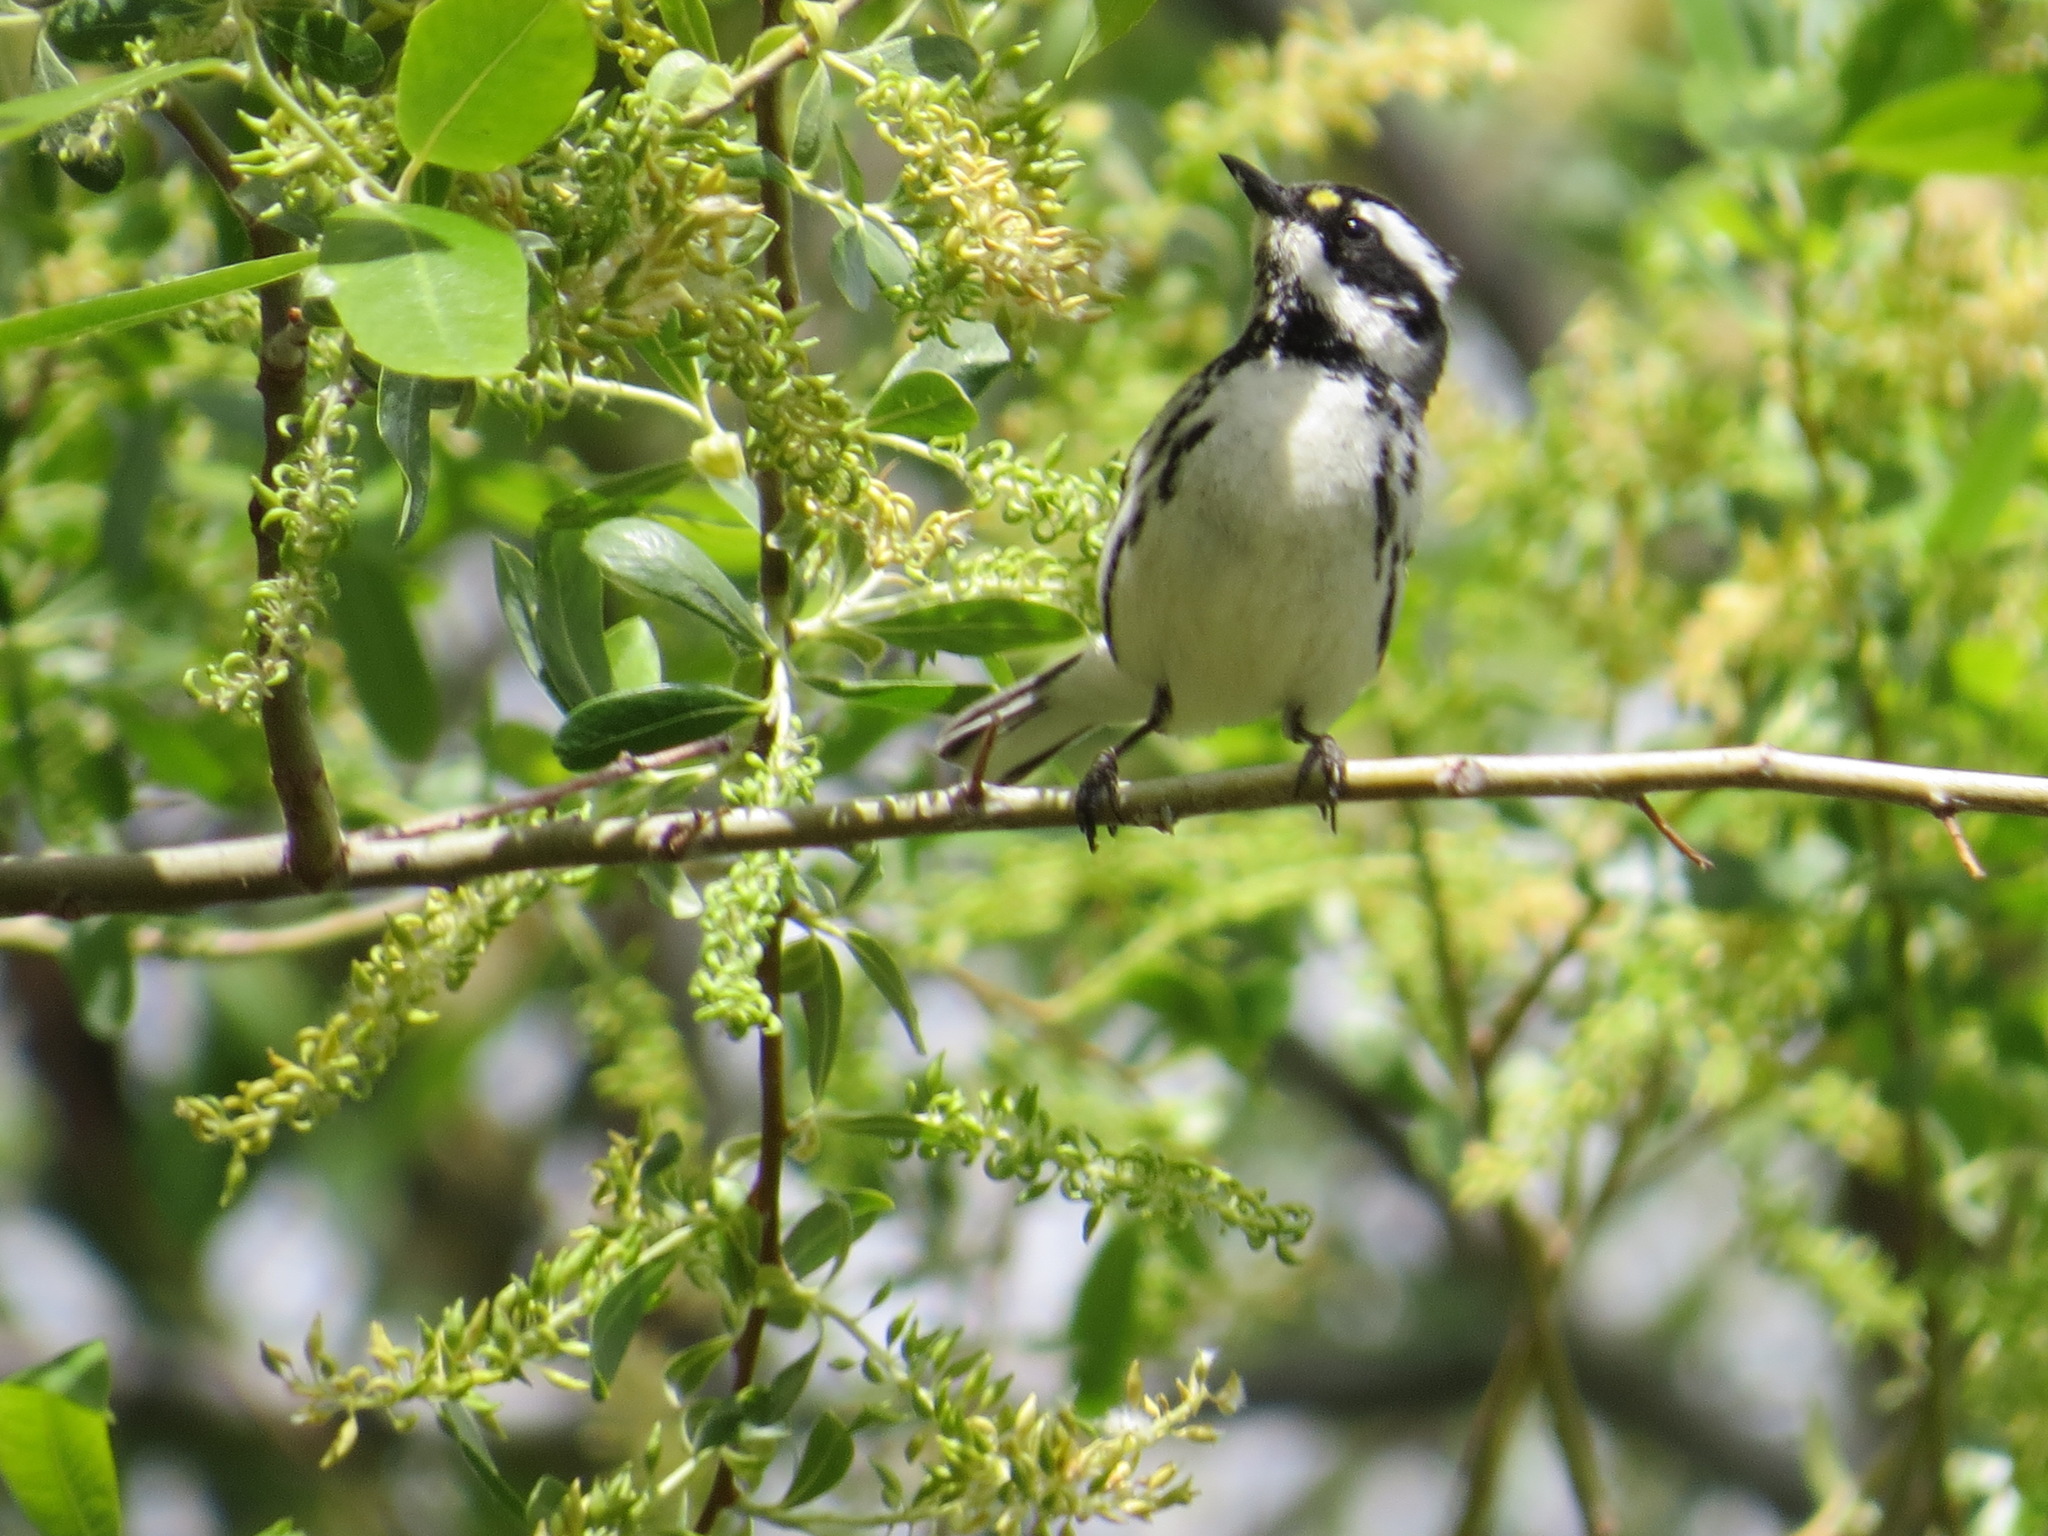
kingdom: Animalia
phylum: Chordata
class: Aves
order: Passeriformes
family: Parulidae
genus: Setophaga
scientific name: Setophaga nigrescens
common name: Black-throated gray warbler
